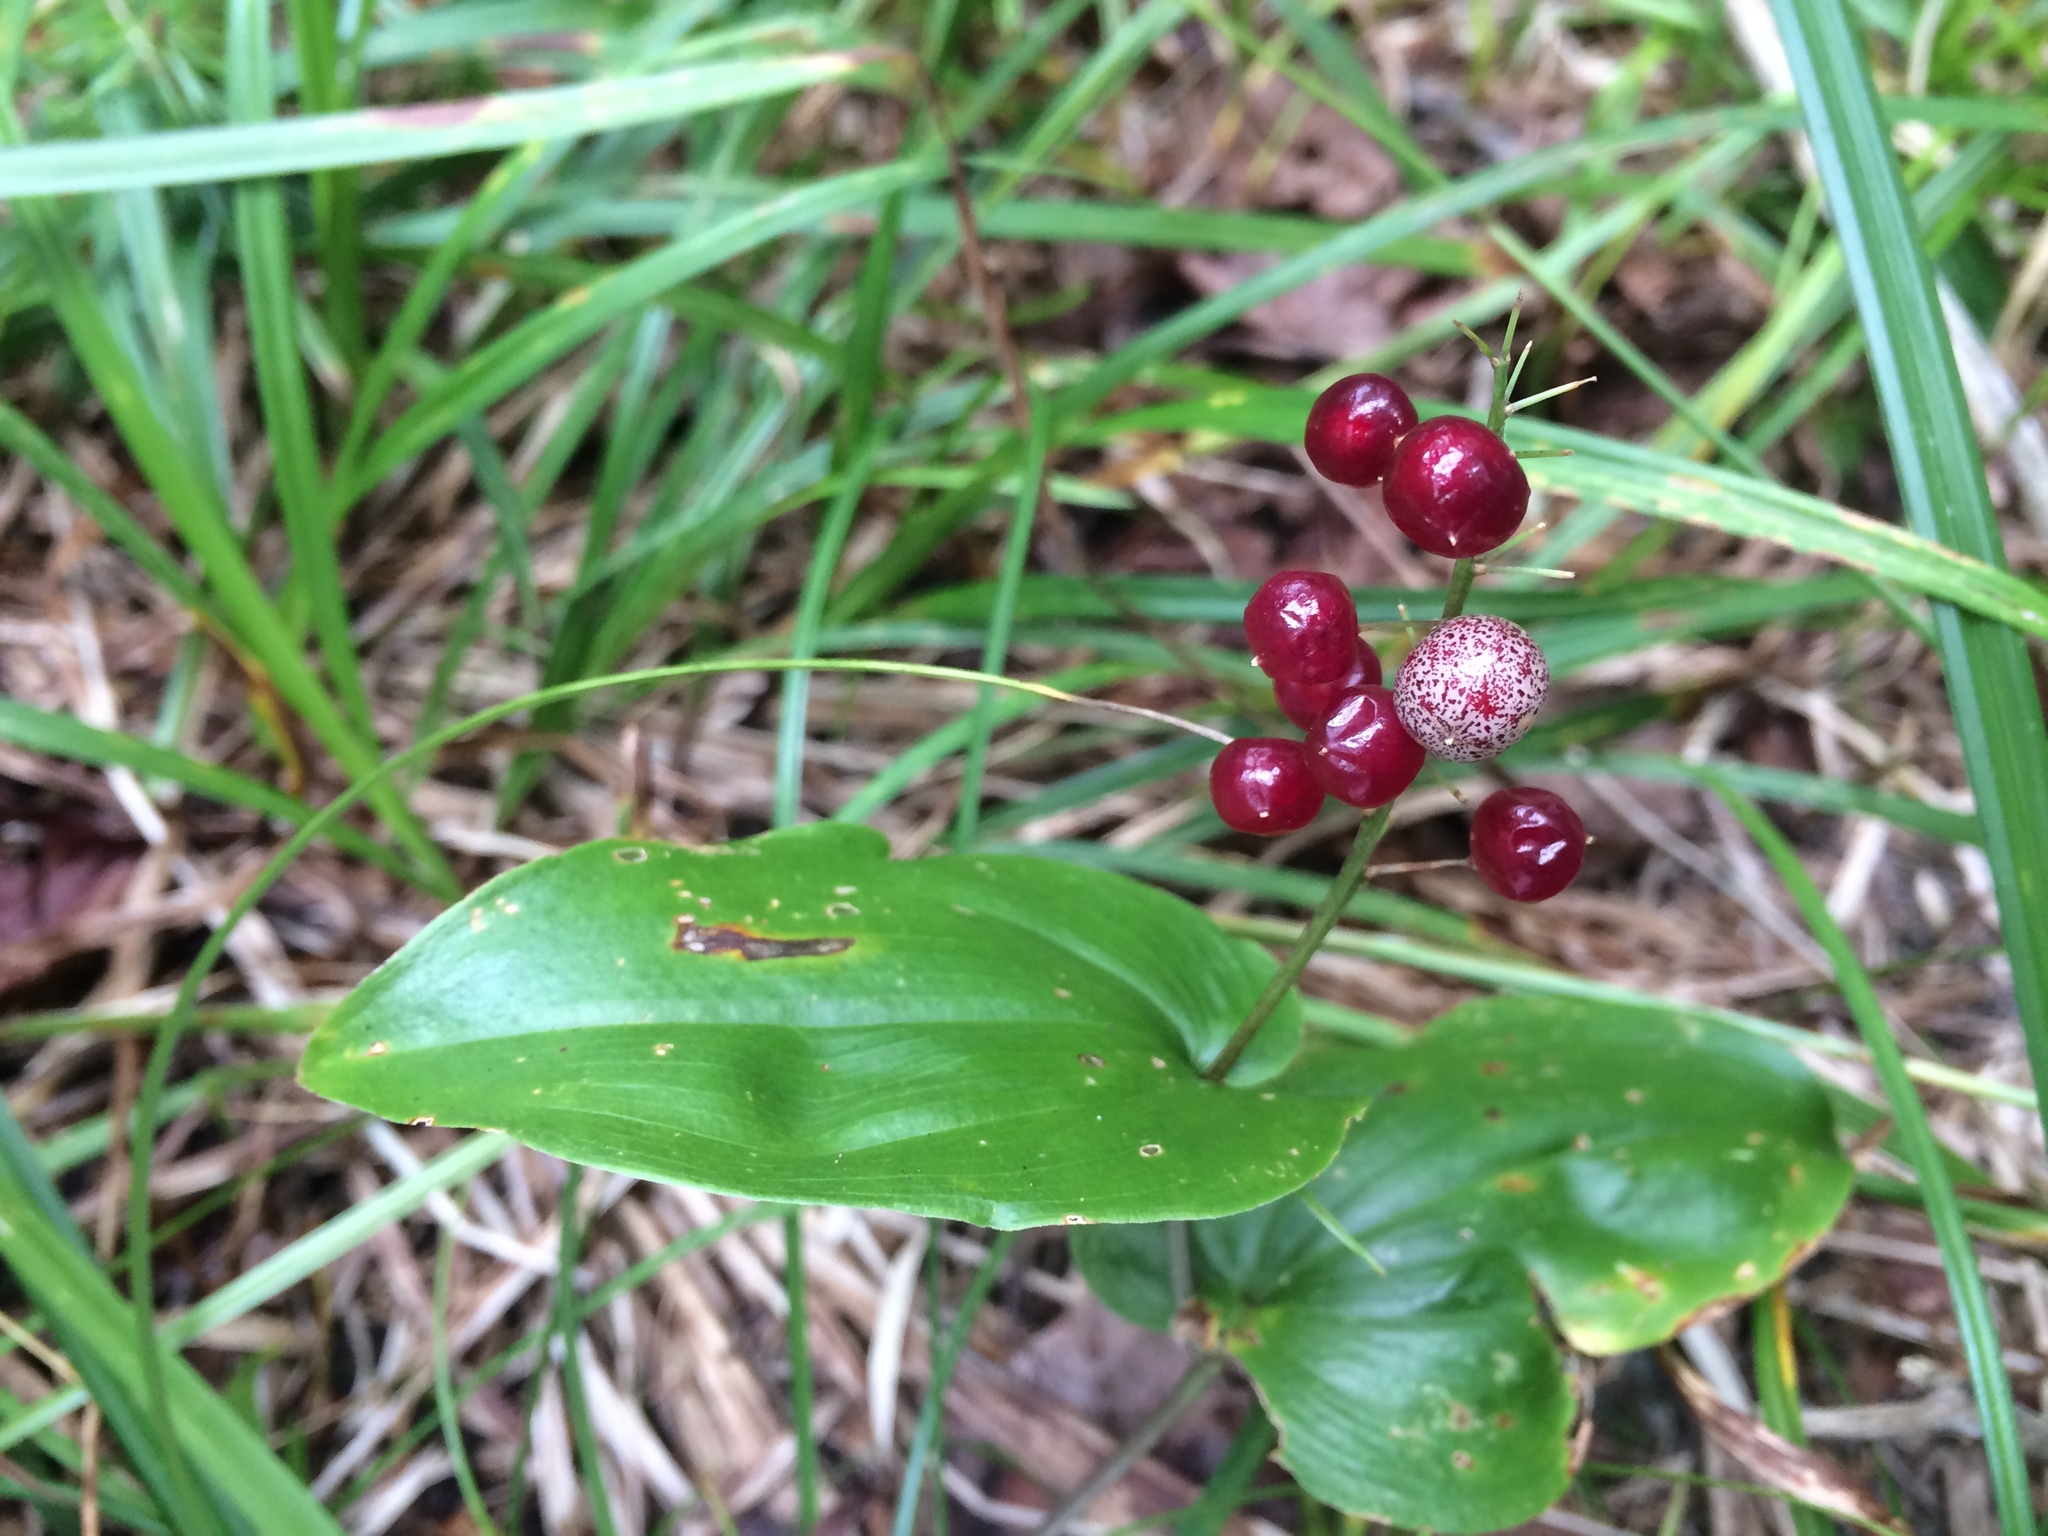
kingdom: Plantae
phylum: Tracheophyta
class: Liliopsida
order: Asparagales
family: Asparagaceae
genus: Maianthemum
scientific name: Maianthemum canadense
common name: False lily-of-the-valley
